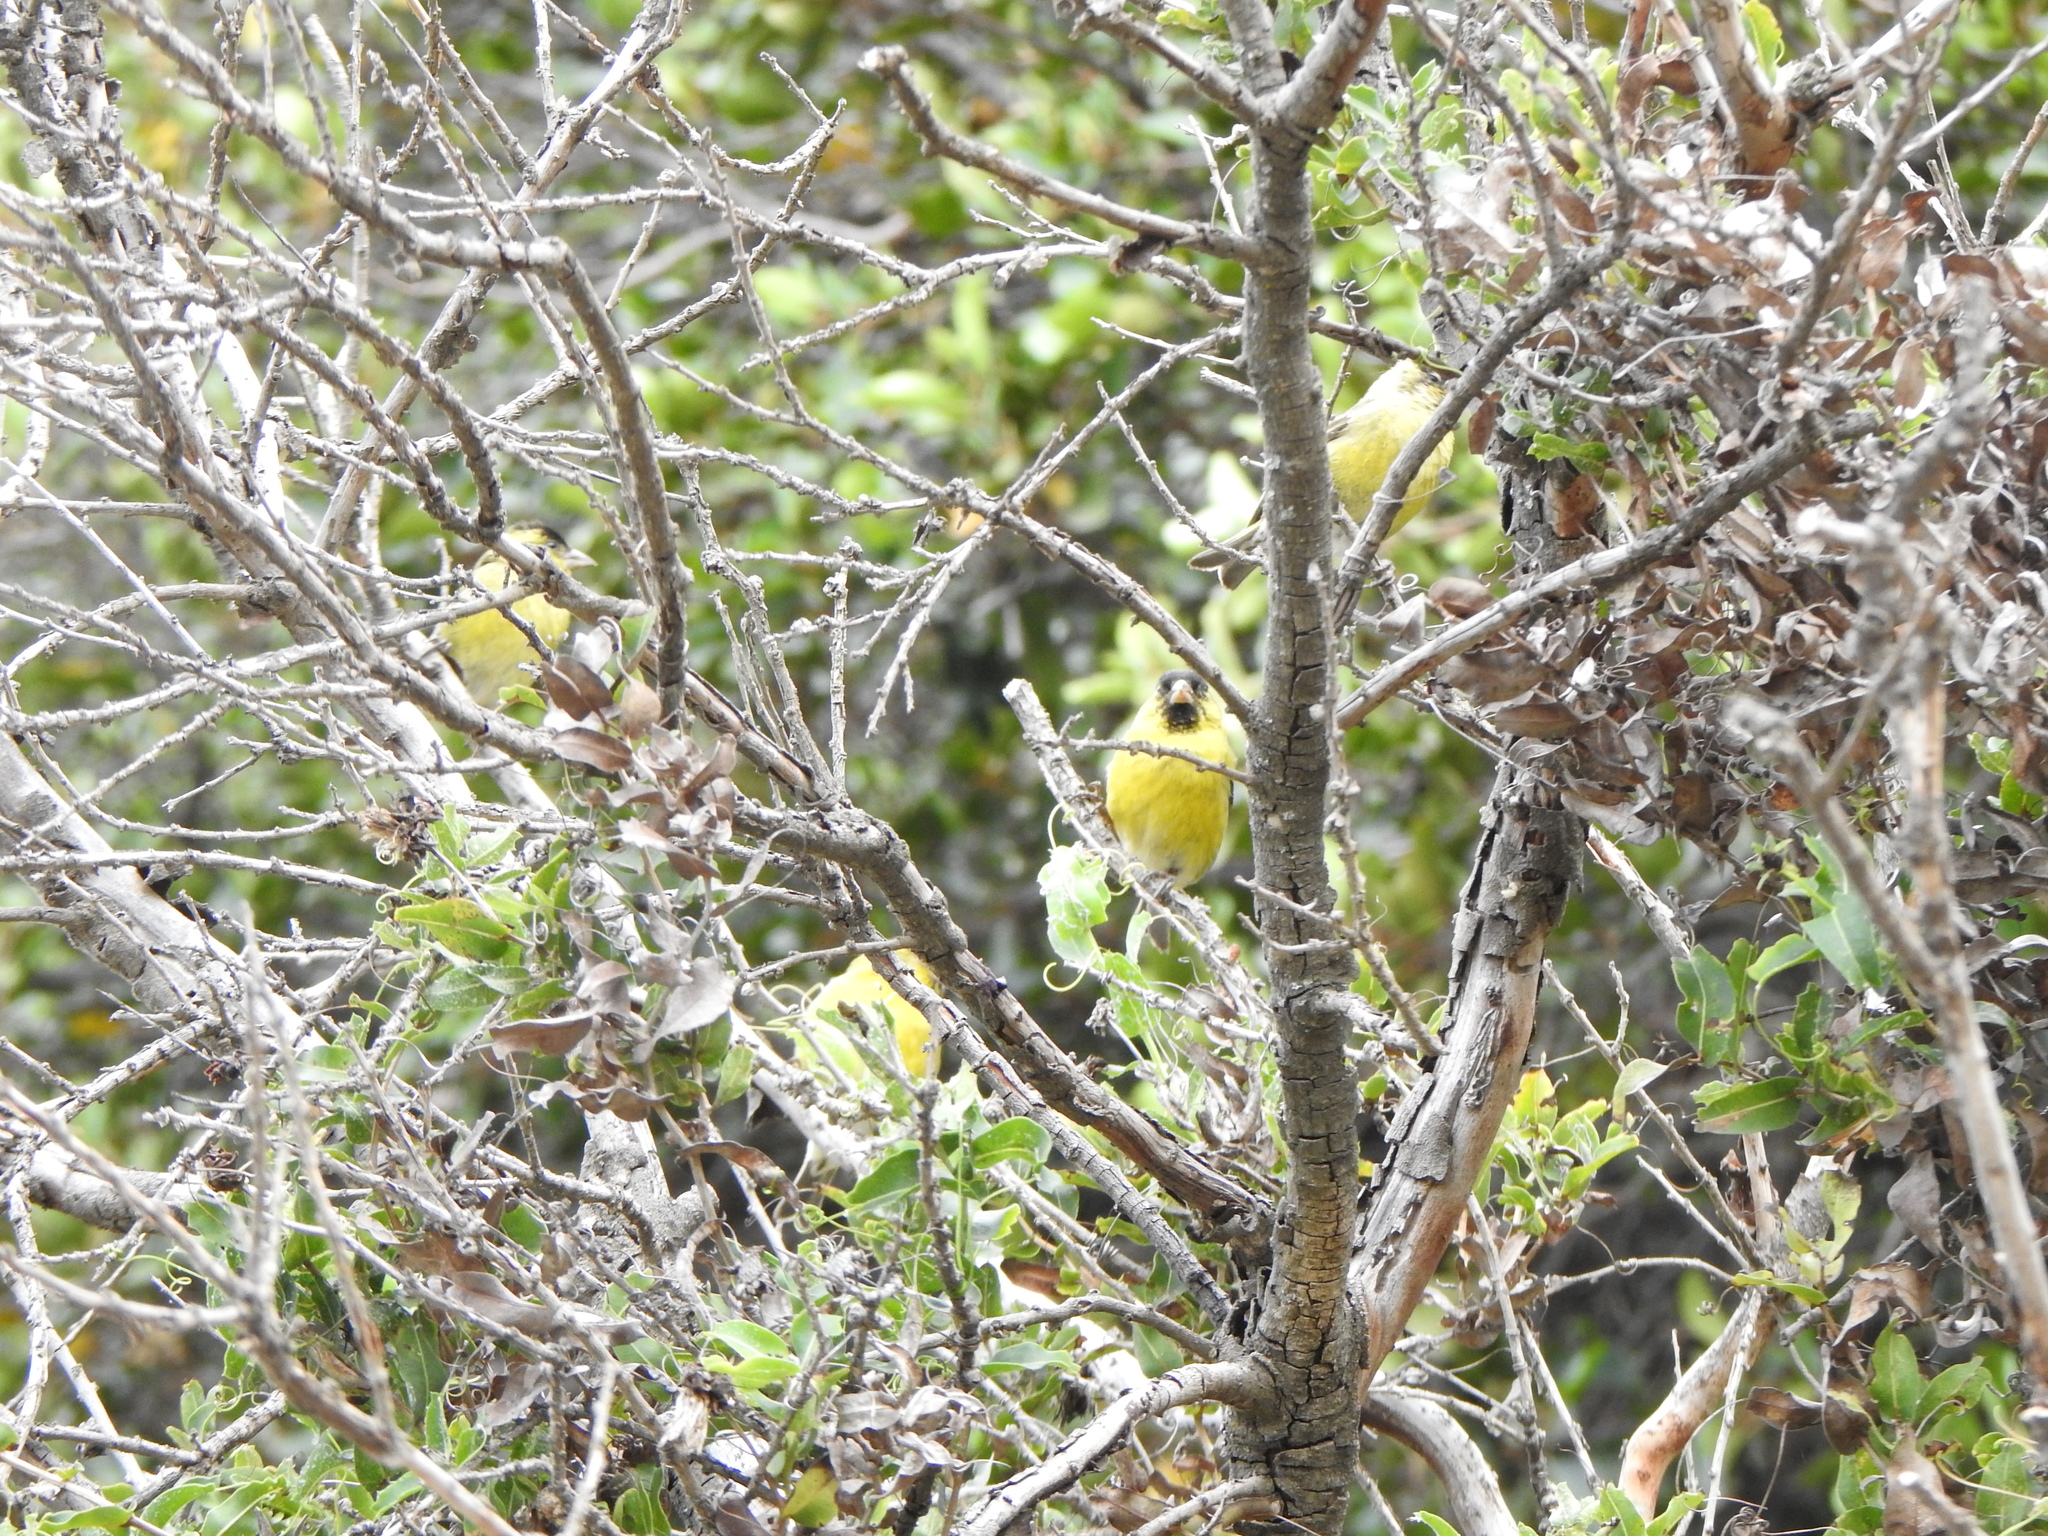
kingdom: Animalia
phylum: Chordata
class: Aves
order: Passeriformes
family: Fringillidae
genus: Spinus
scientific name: Spinus barbatus
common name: Black-chinned siskin
